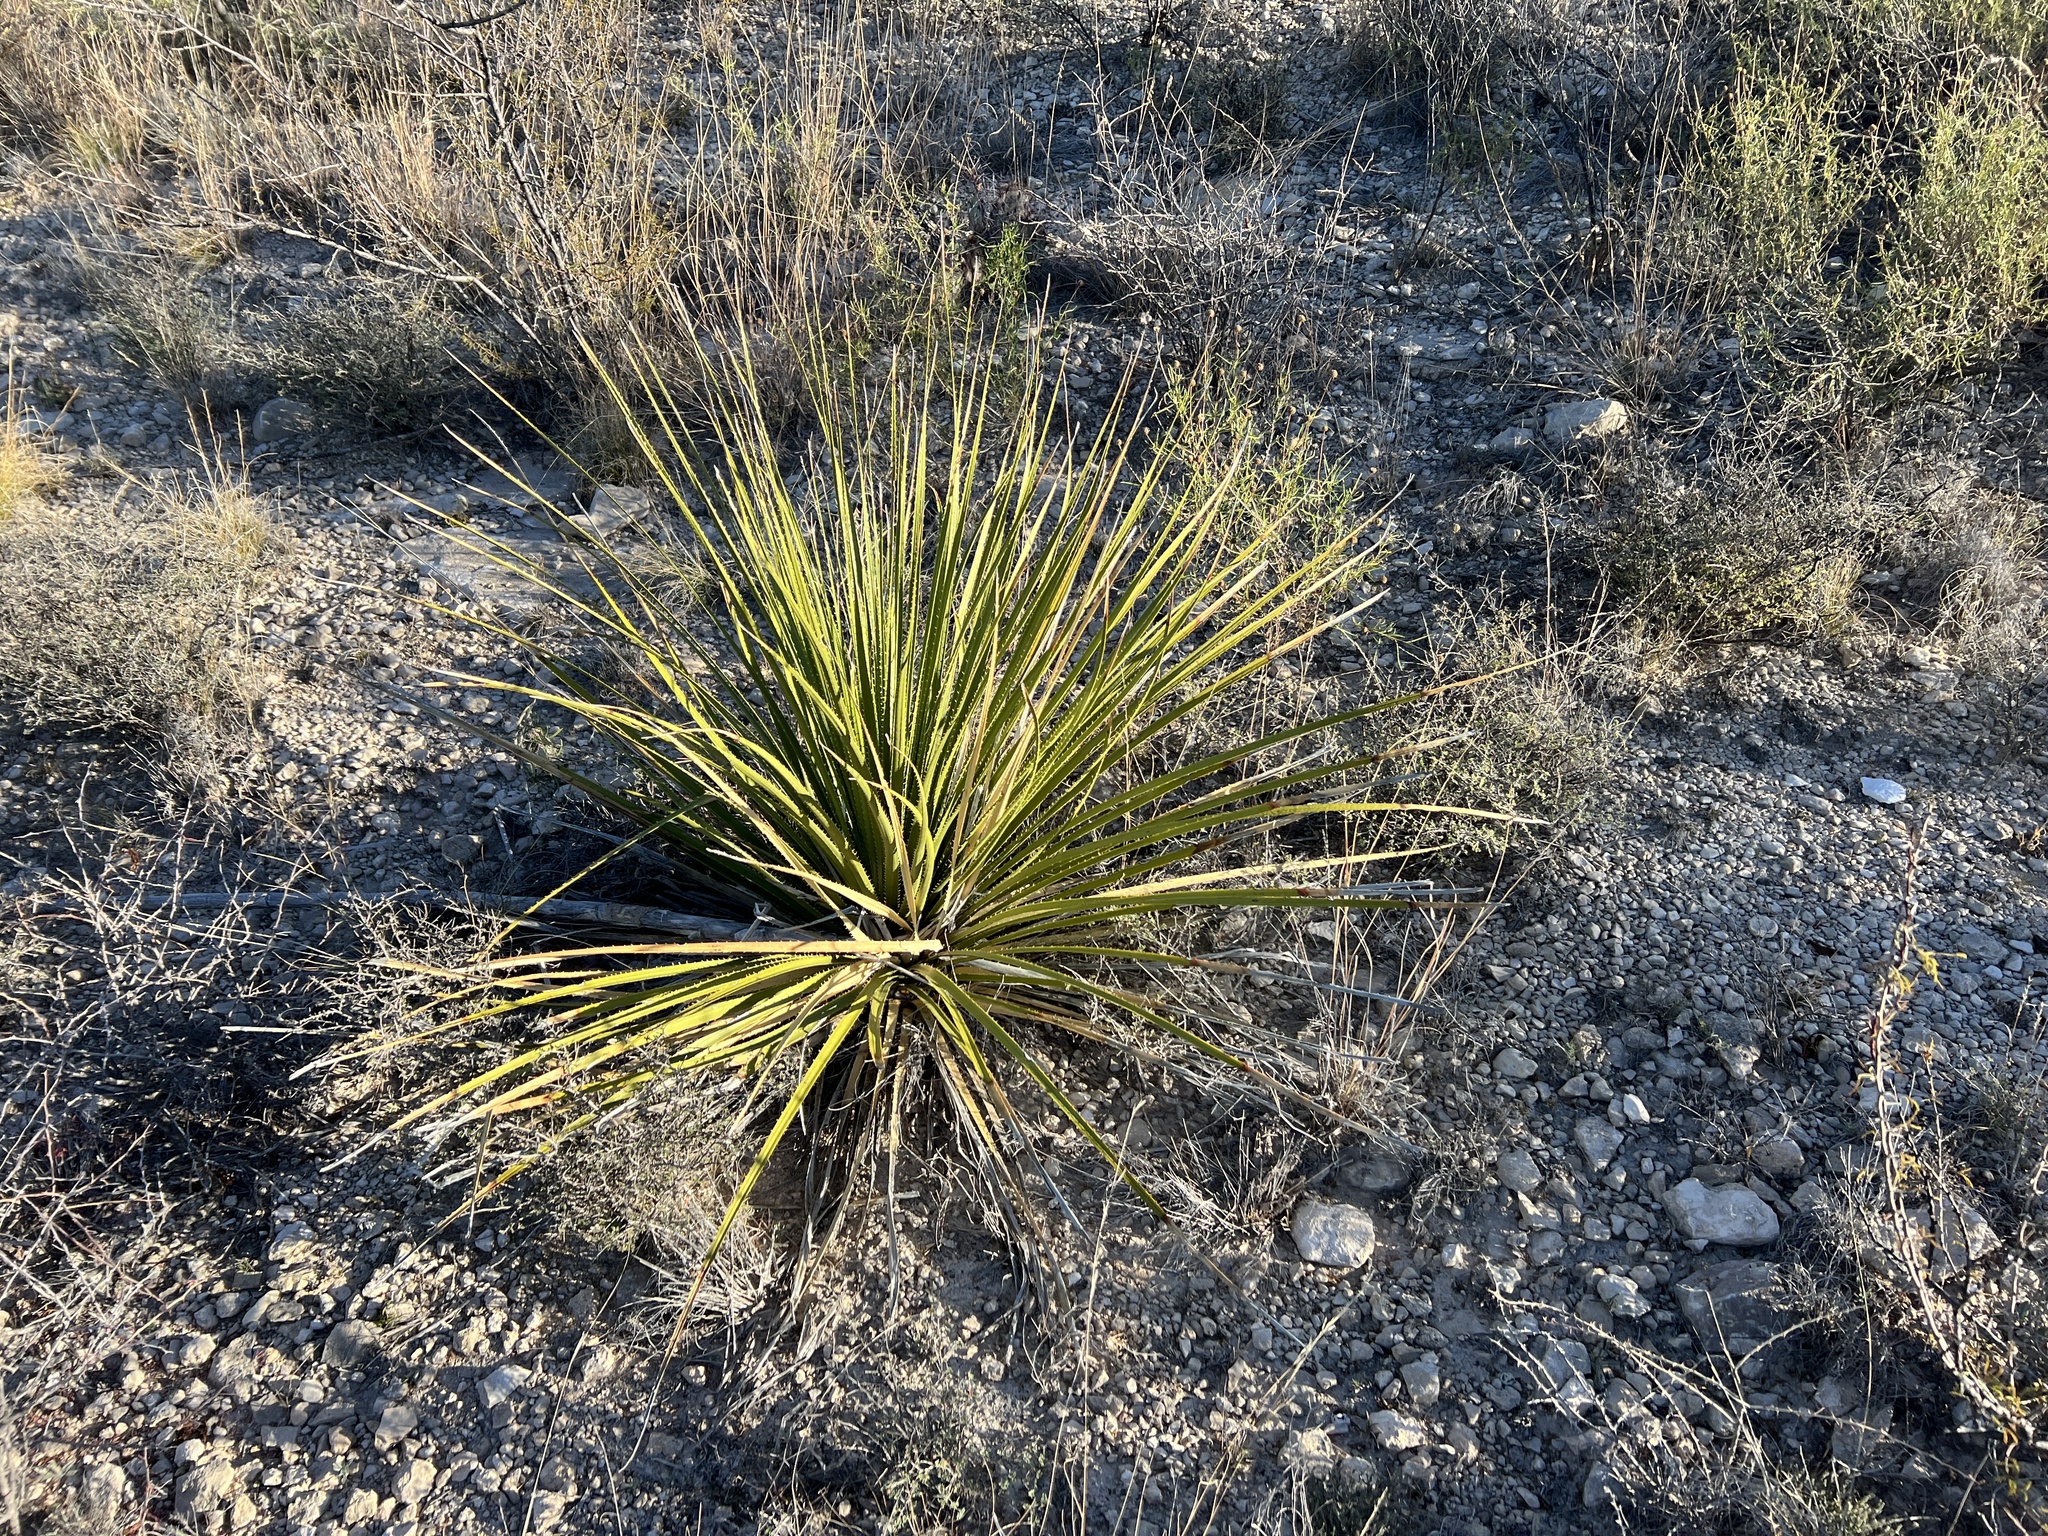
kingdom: Plantae
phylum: Tracheophyta
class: Liliopsida
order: Asparagales
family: Asparagaceae
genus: Dasylirion
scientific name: Dasylirion texanum
